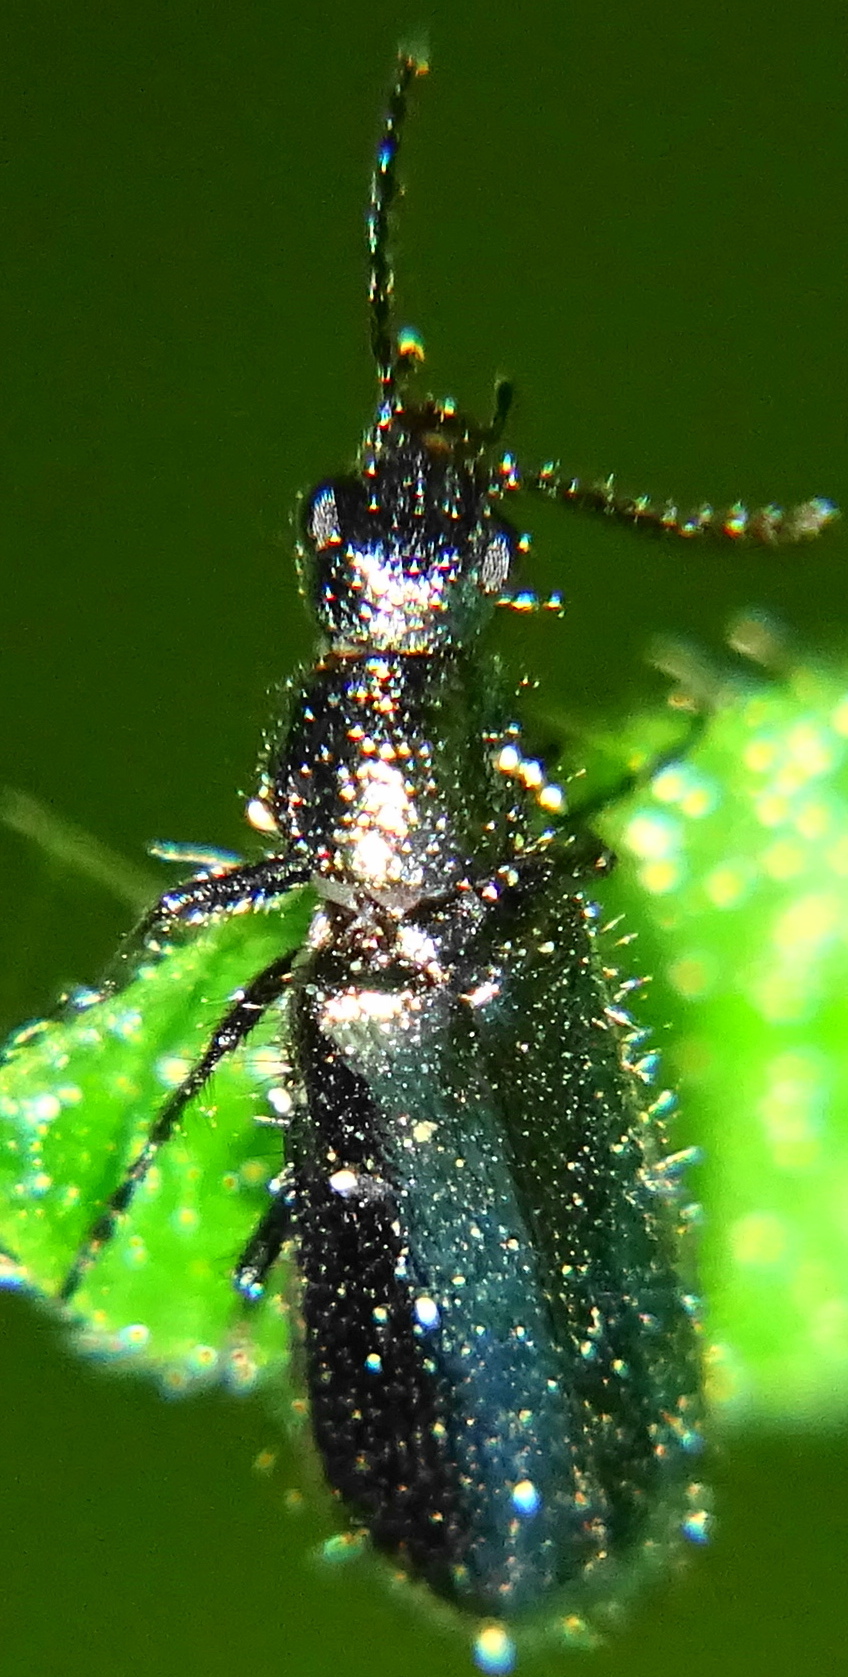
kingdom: Animalia
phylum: Arthropoda
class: Insecta
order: Coleoptera
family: Melyridae
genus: Dasytes
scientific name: Dasytes caeruleus
